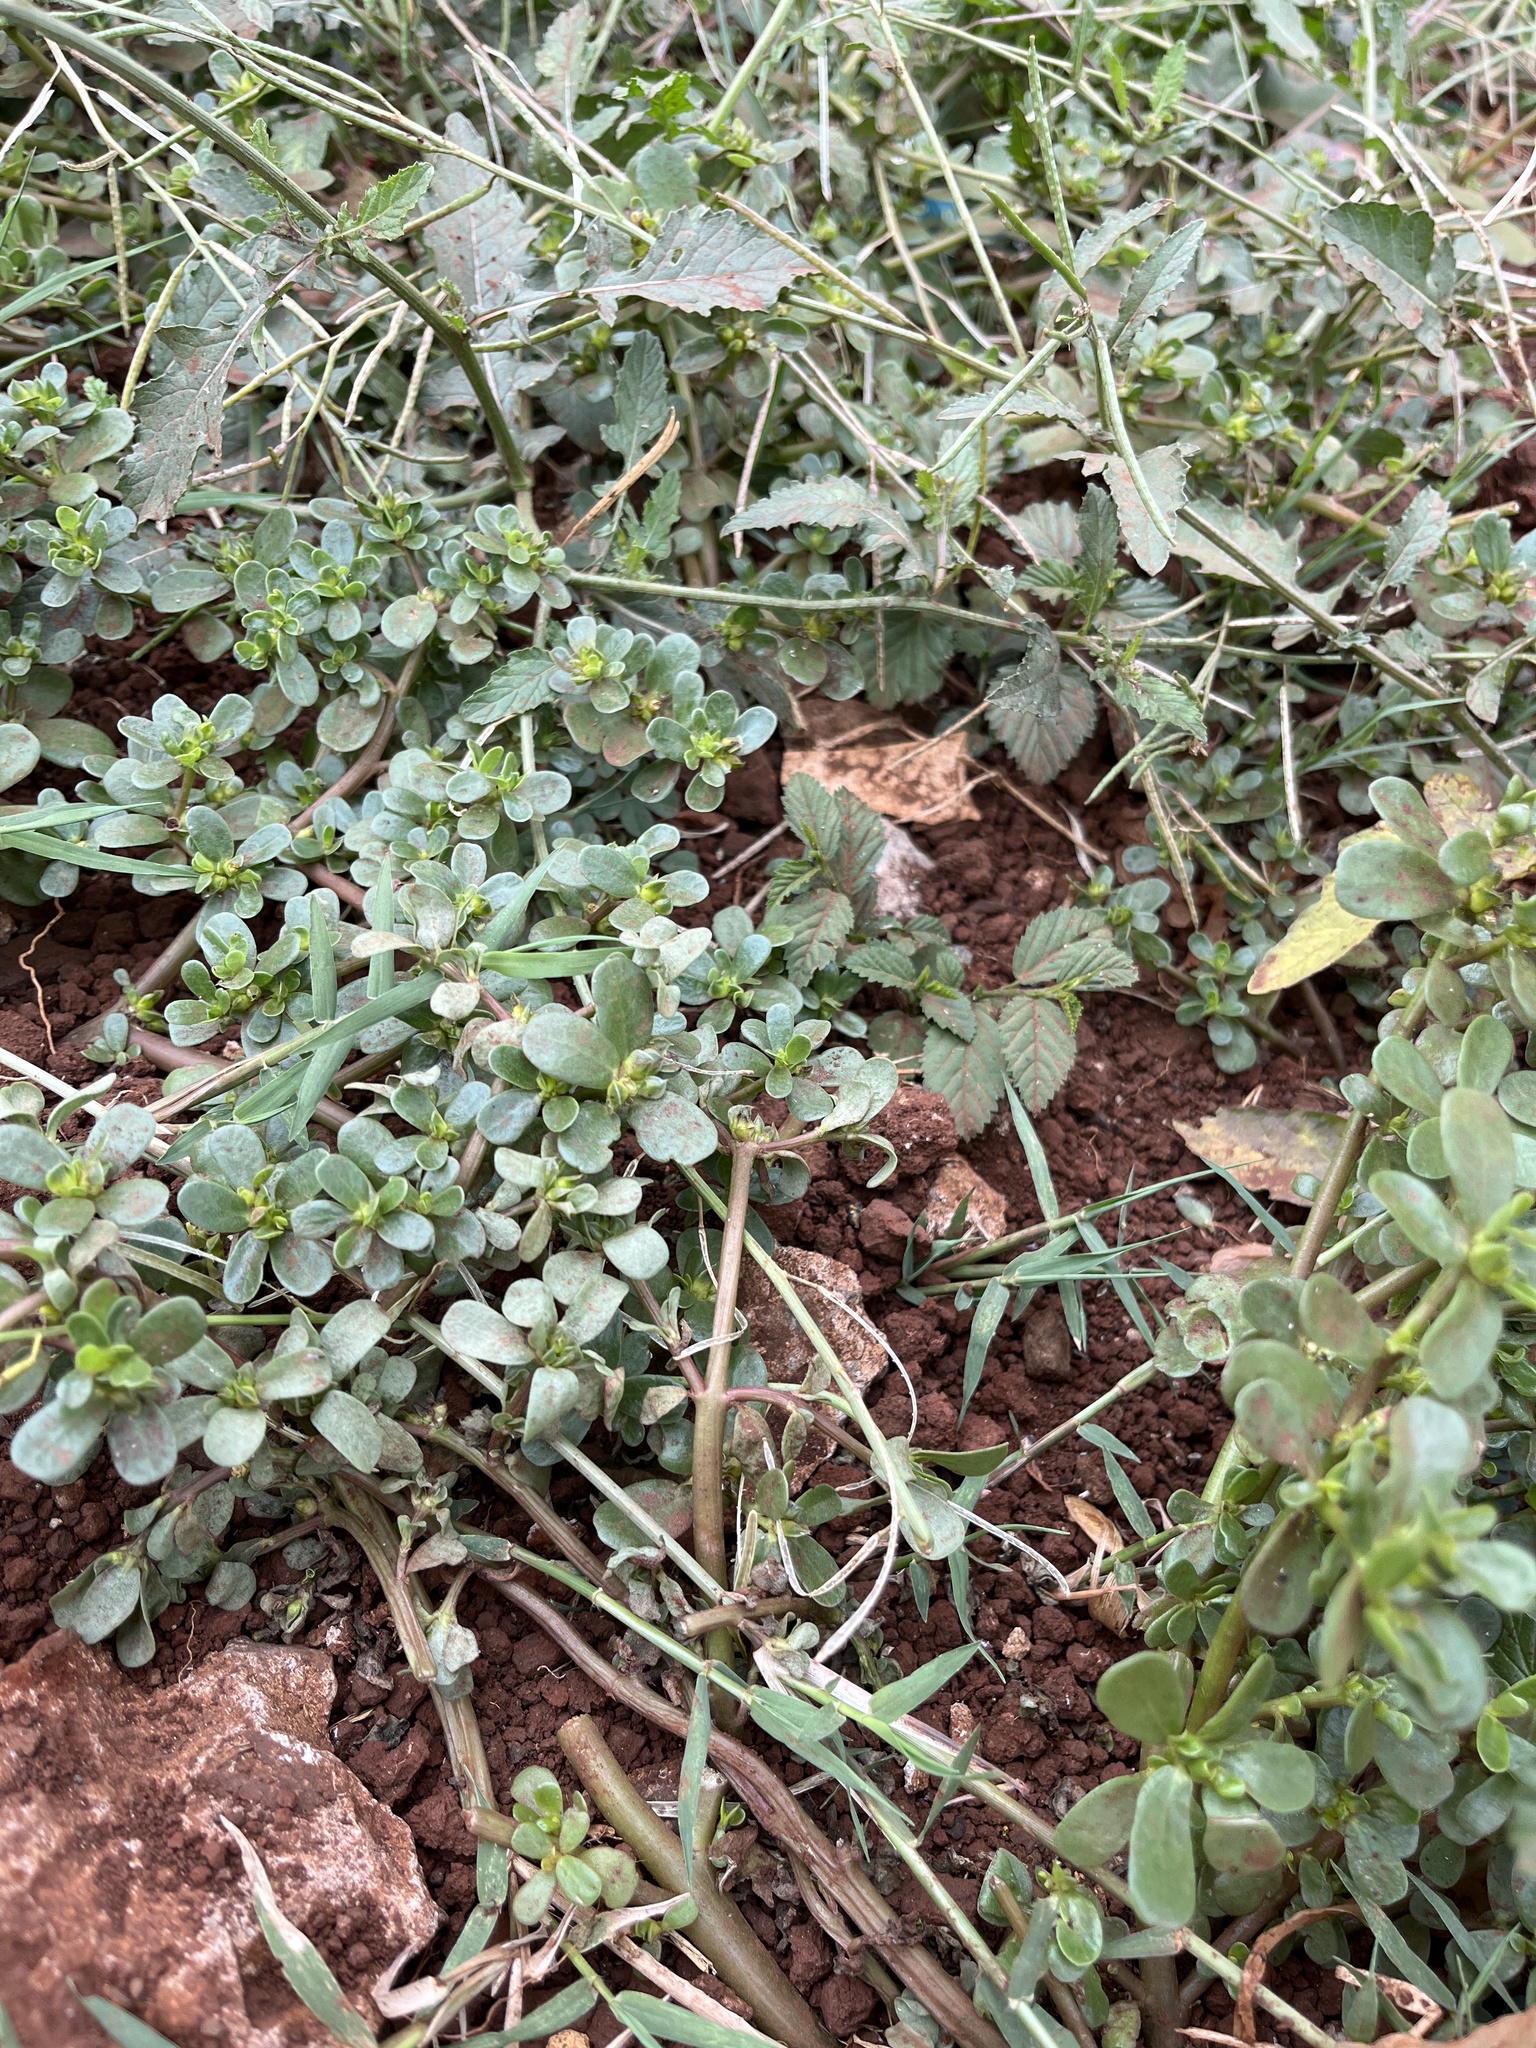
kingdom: Plantae
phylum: Tracheophyta
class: Magnoliopsida
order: Caryophyllales
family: Portulacaceae
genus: Portulaca
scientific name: Portulaca oleracea
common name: Common purslane
